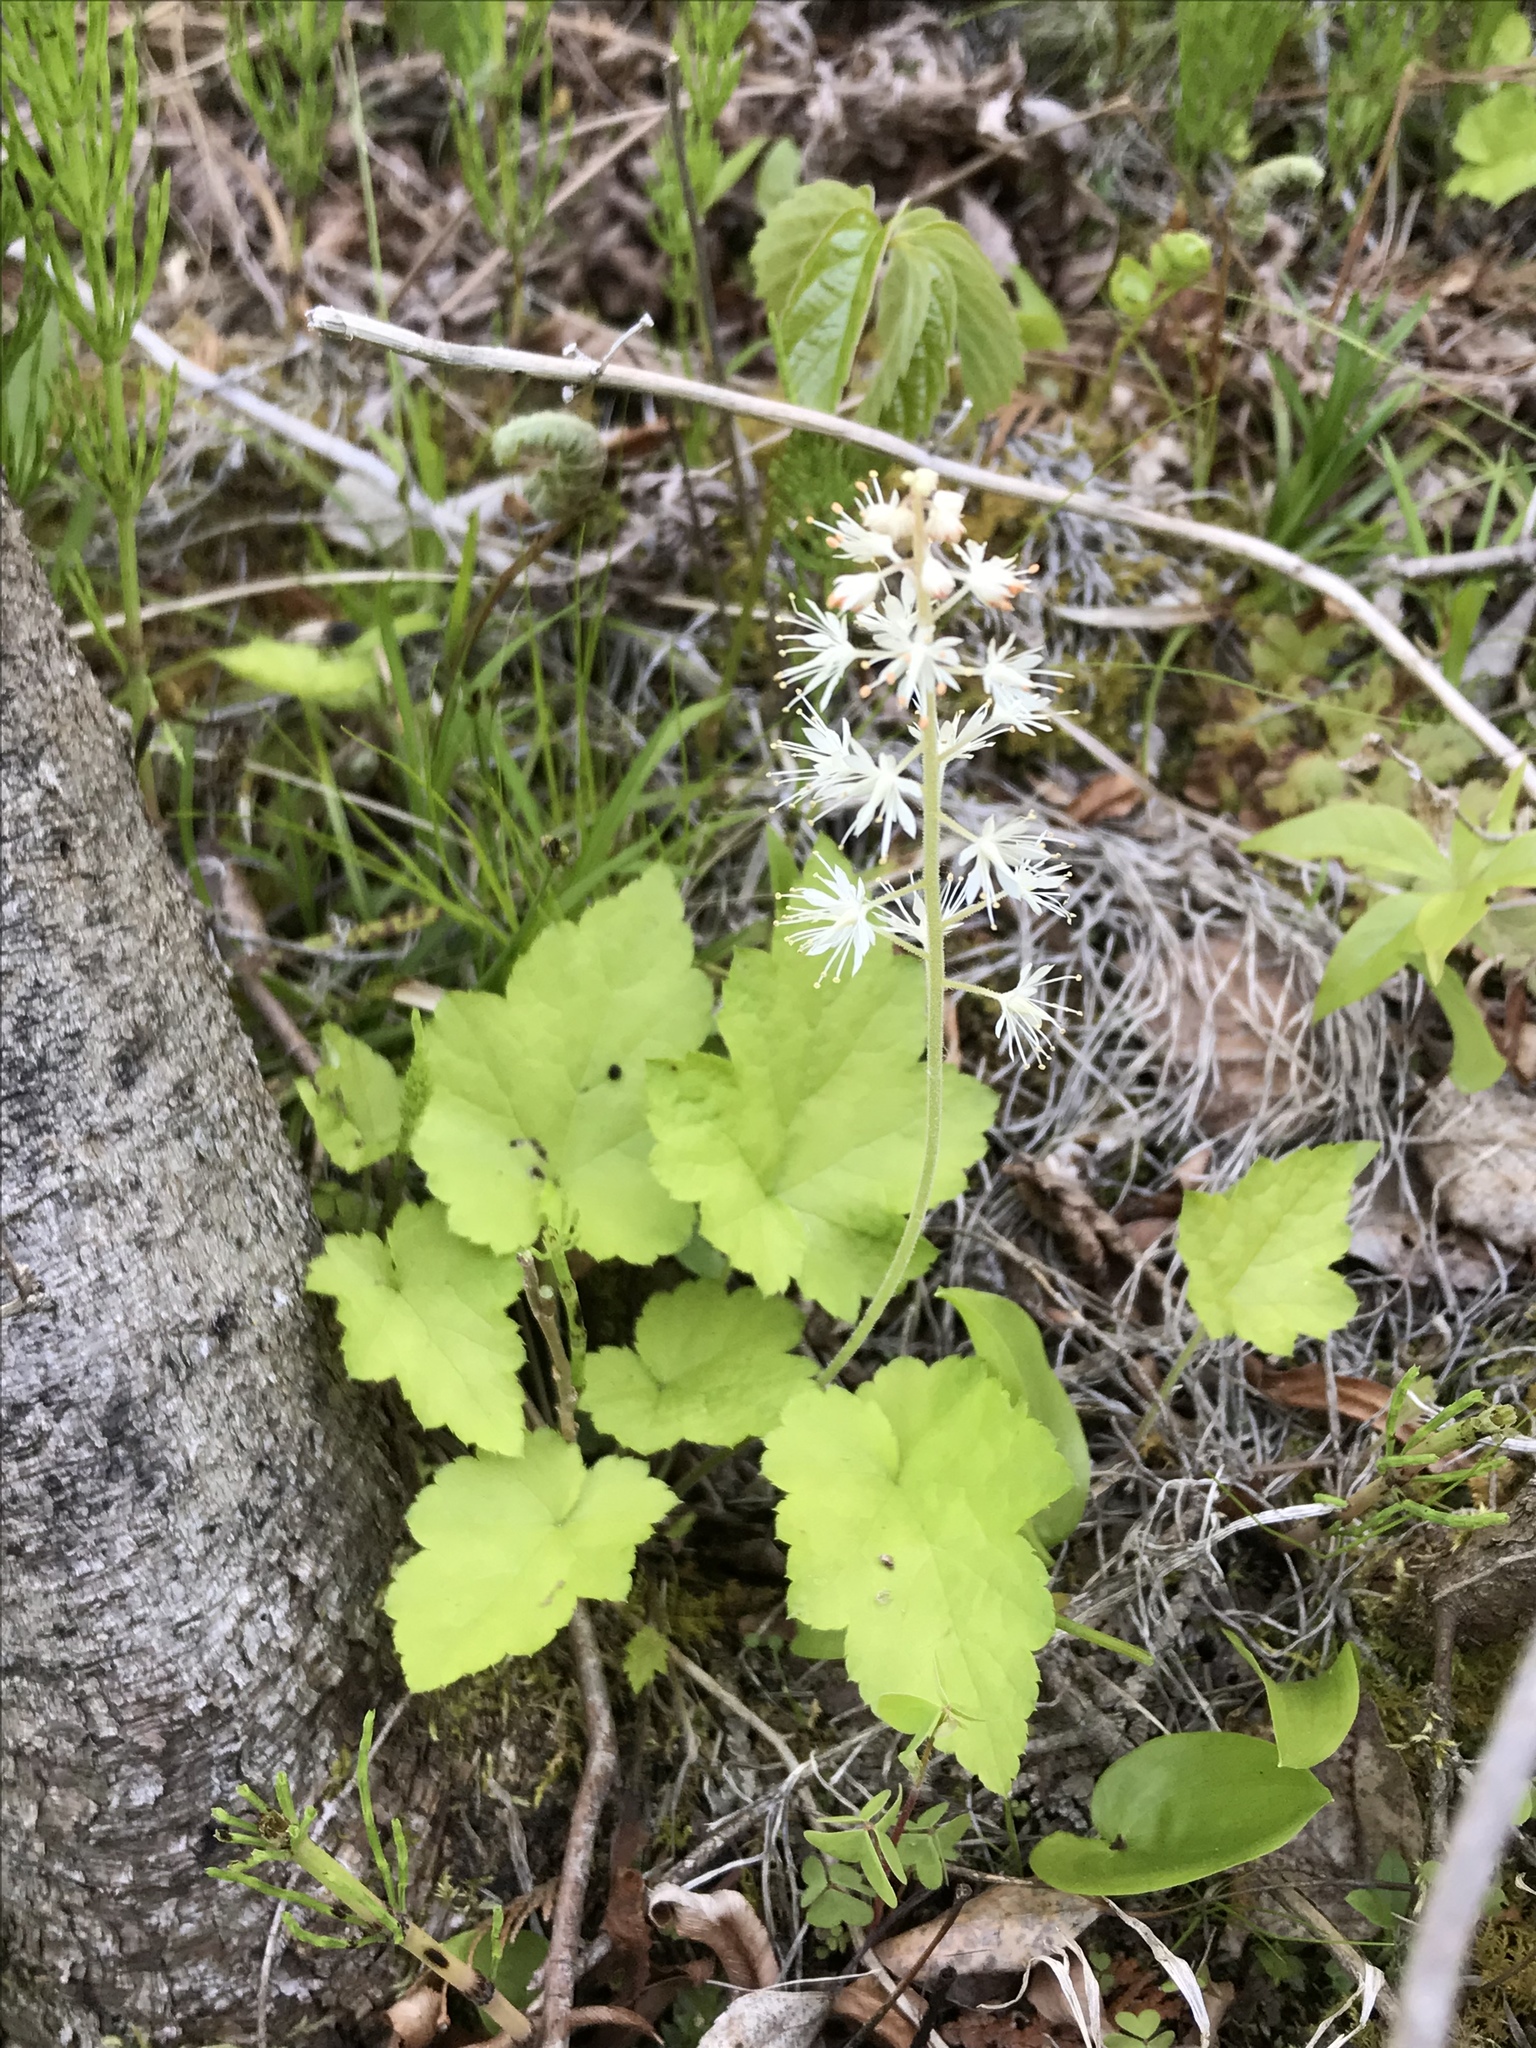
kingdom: Plantae
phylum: Tracheophyta
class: Magnoliopsida
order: Saxifragales
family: Saxifragaceae
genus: Tiarella
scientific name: Tiarella stolonifera
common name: Stoloniferous foamflower
